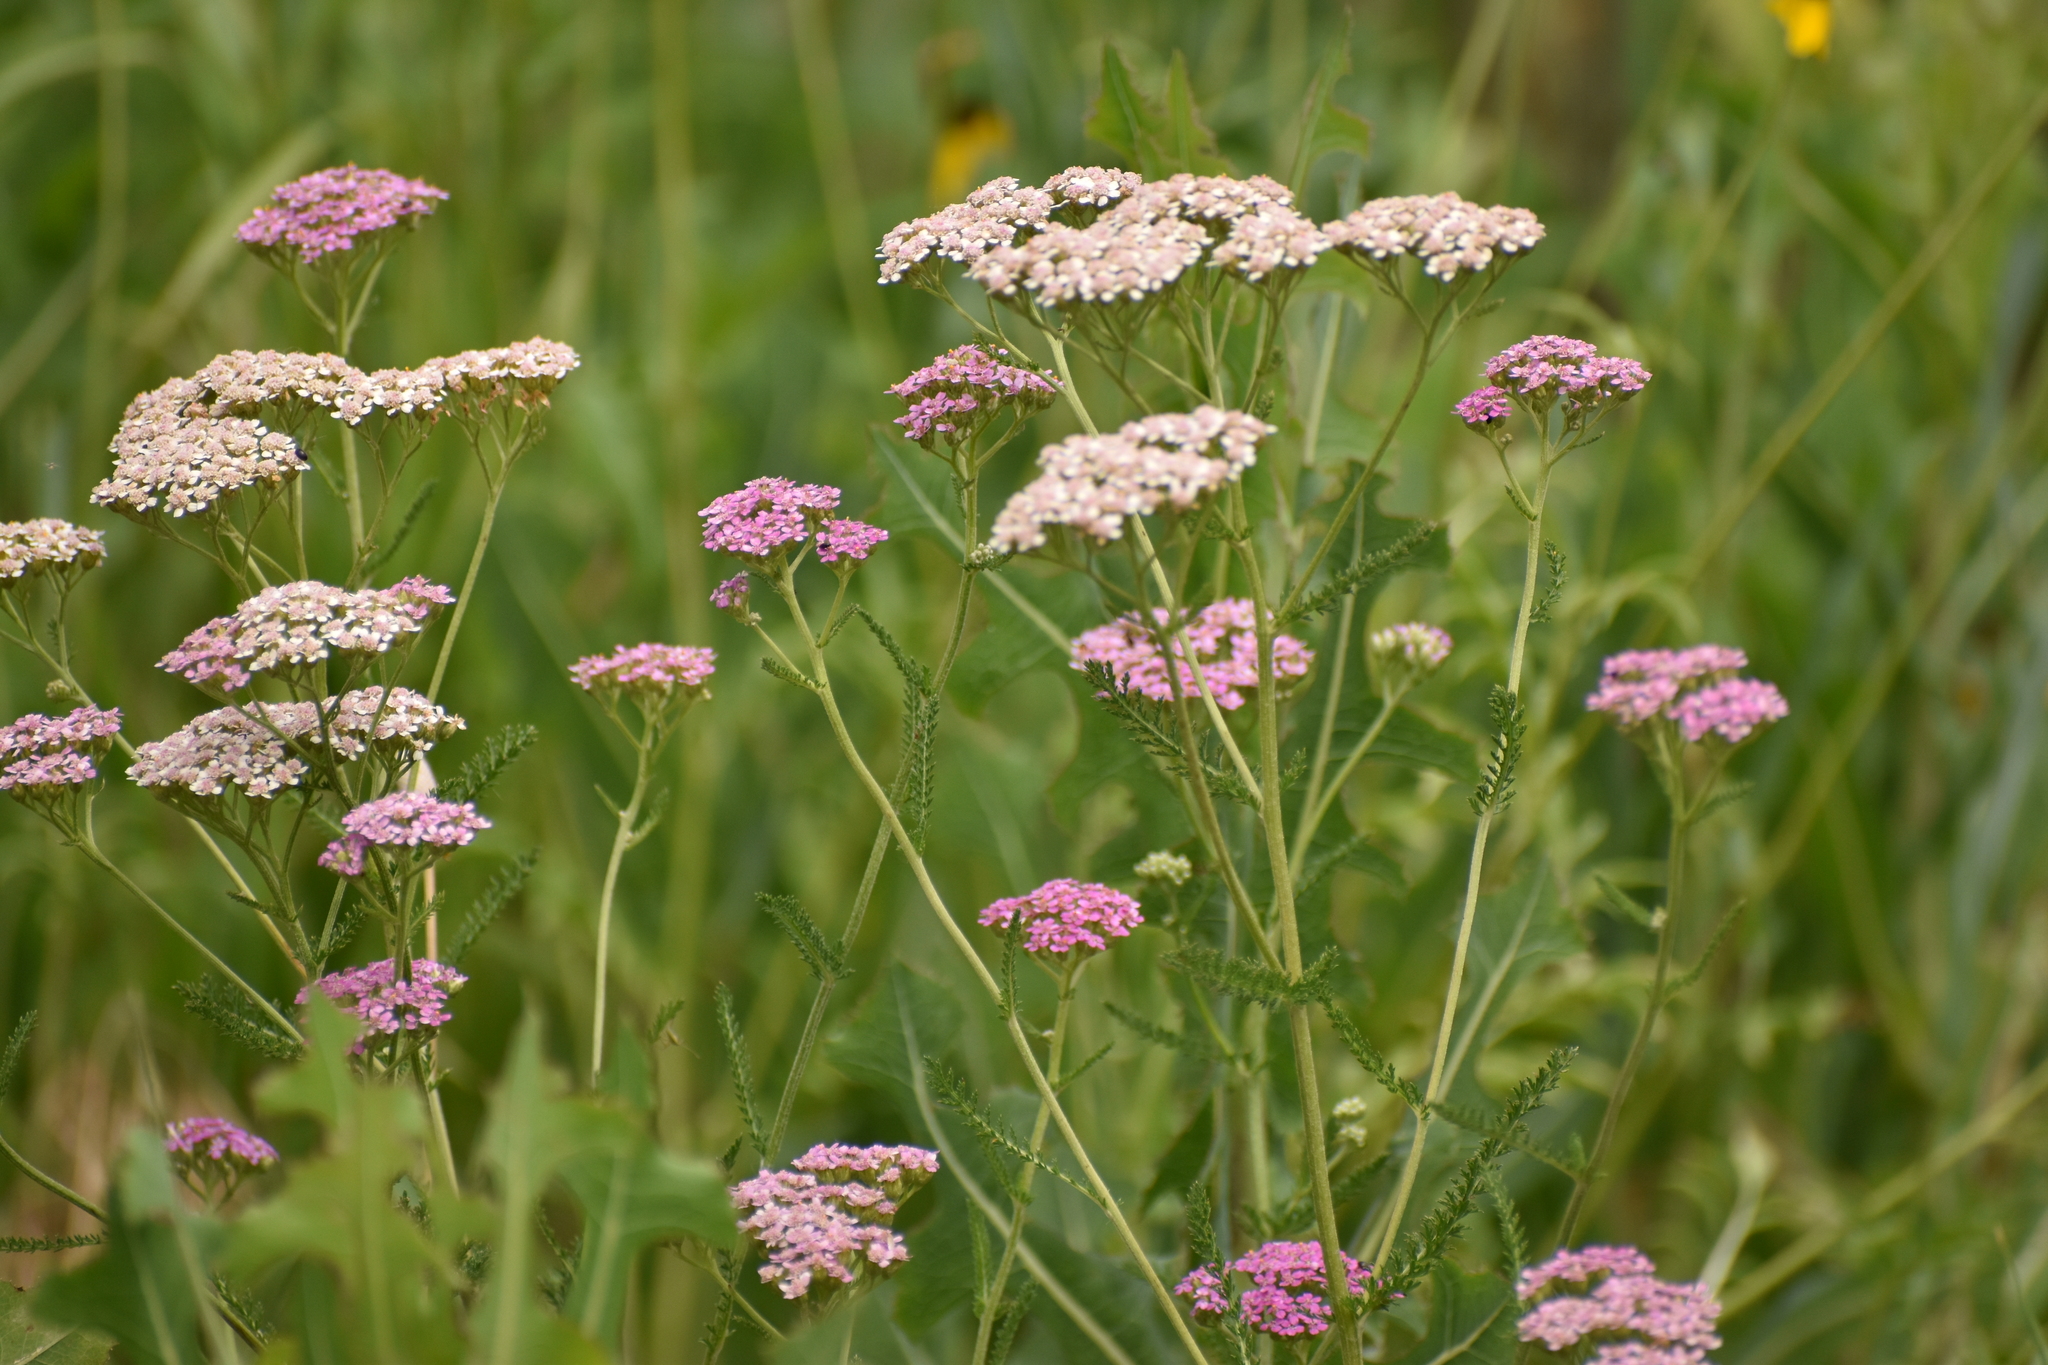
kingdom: Plantae
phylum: Tracheophyta
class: Magnoliopsida
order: Asterales
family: Asteraceae
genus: Achillea
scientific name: Achillea millefolium
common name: Yarrow
